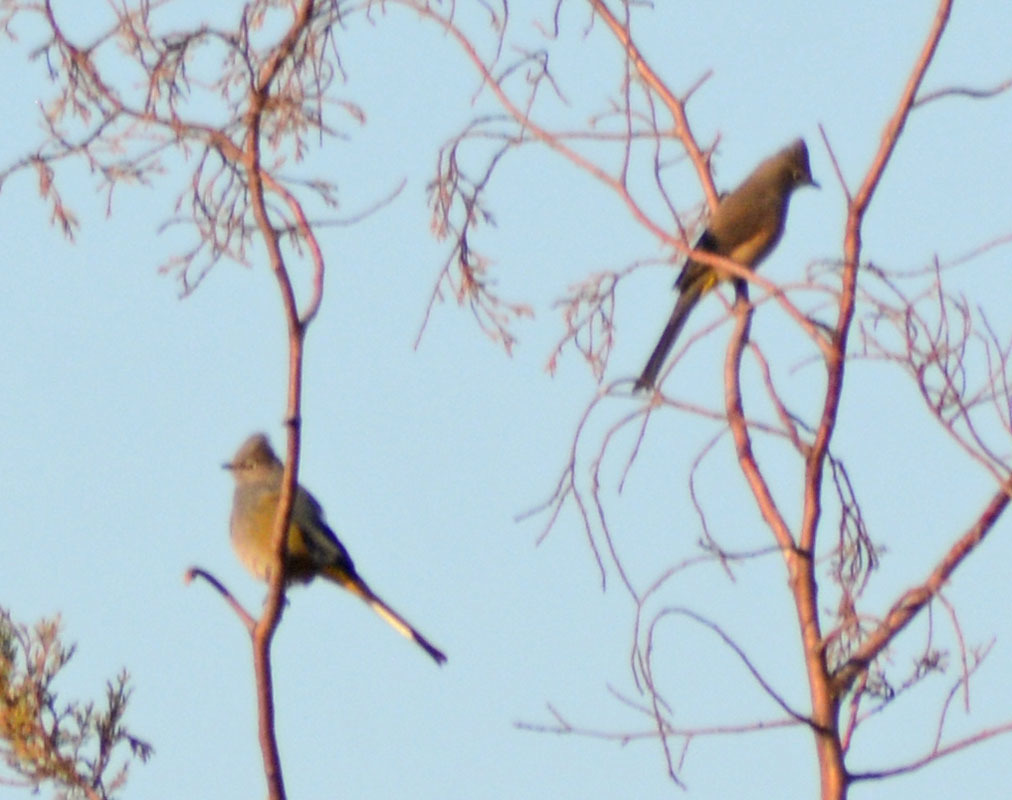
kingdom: Animalia
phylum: Chordata
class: Aves
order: Passeriformes
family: Ptilogonatidae
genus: Ptilogonys
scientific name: Ptilogonys cinereus
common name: Gray silky-flycatcher
